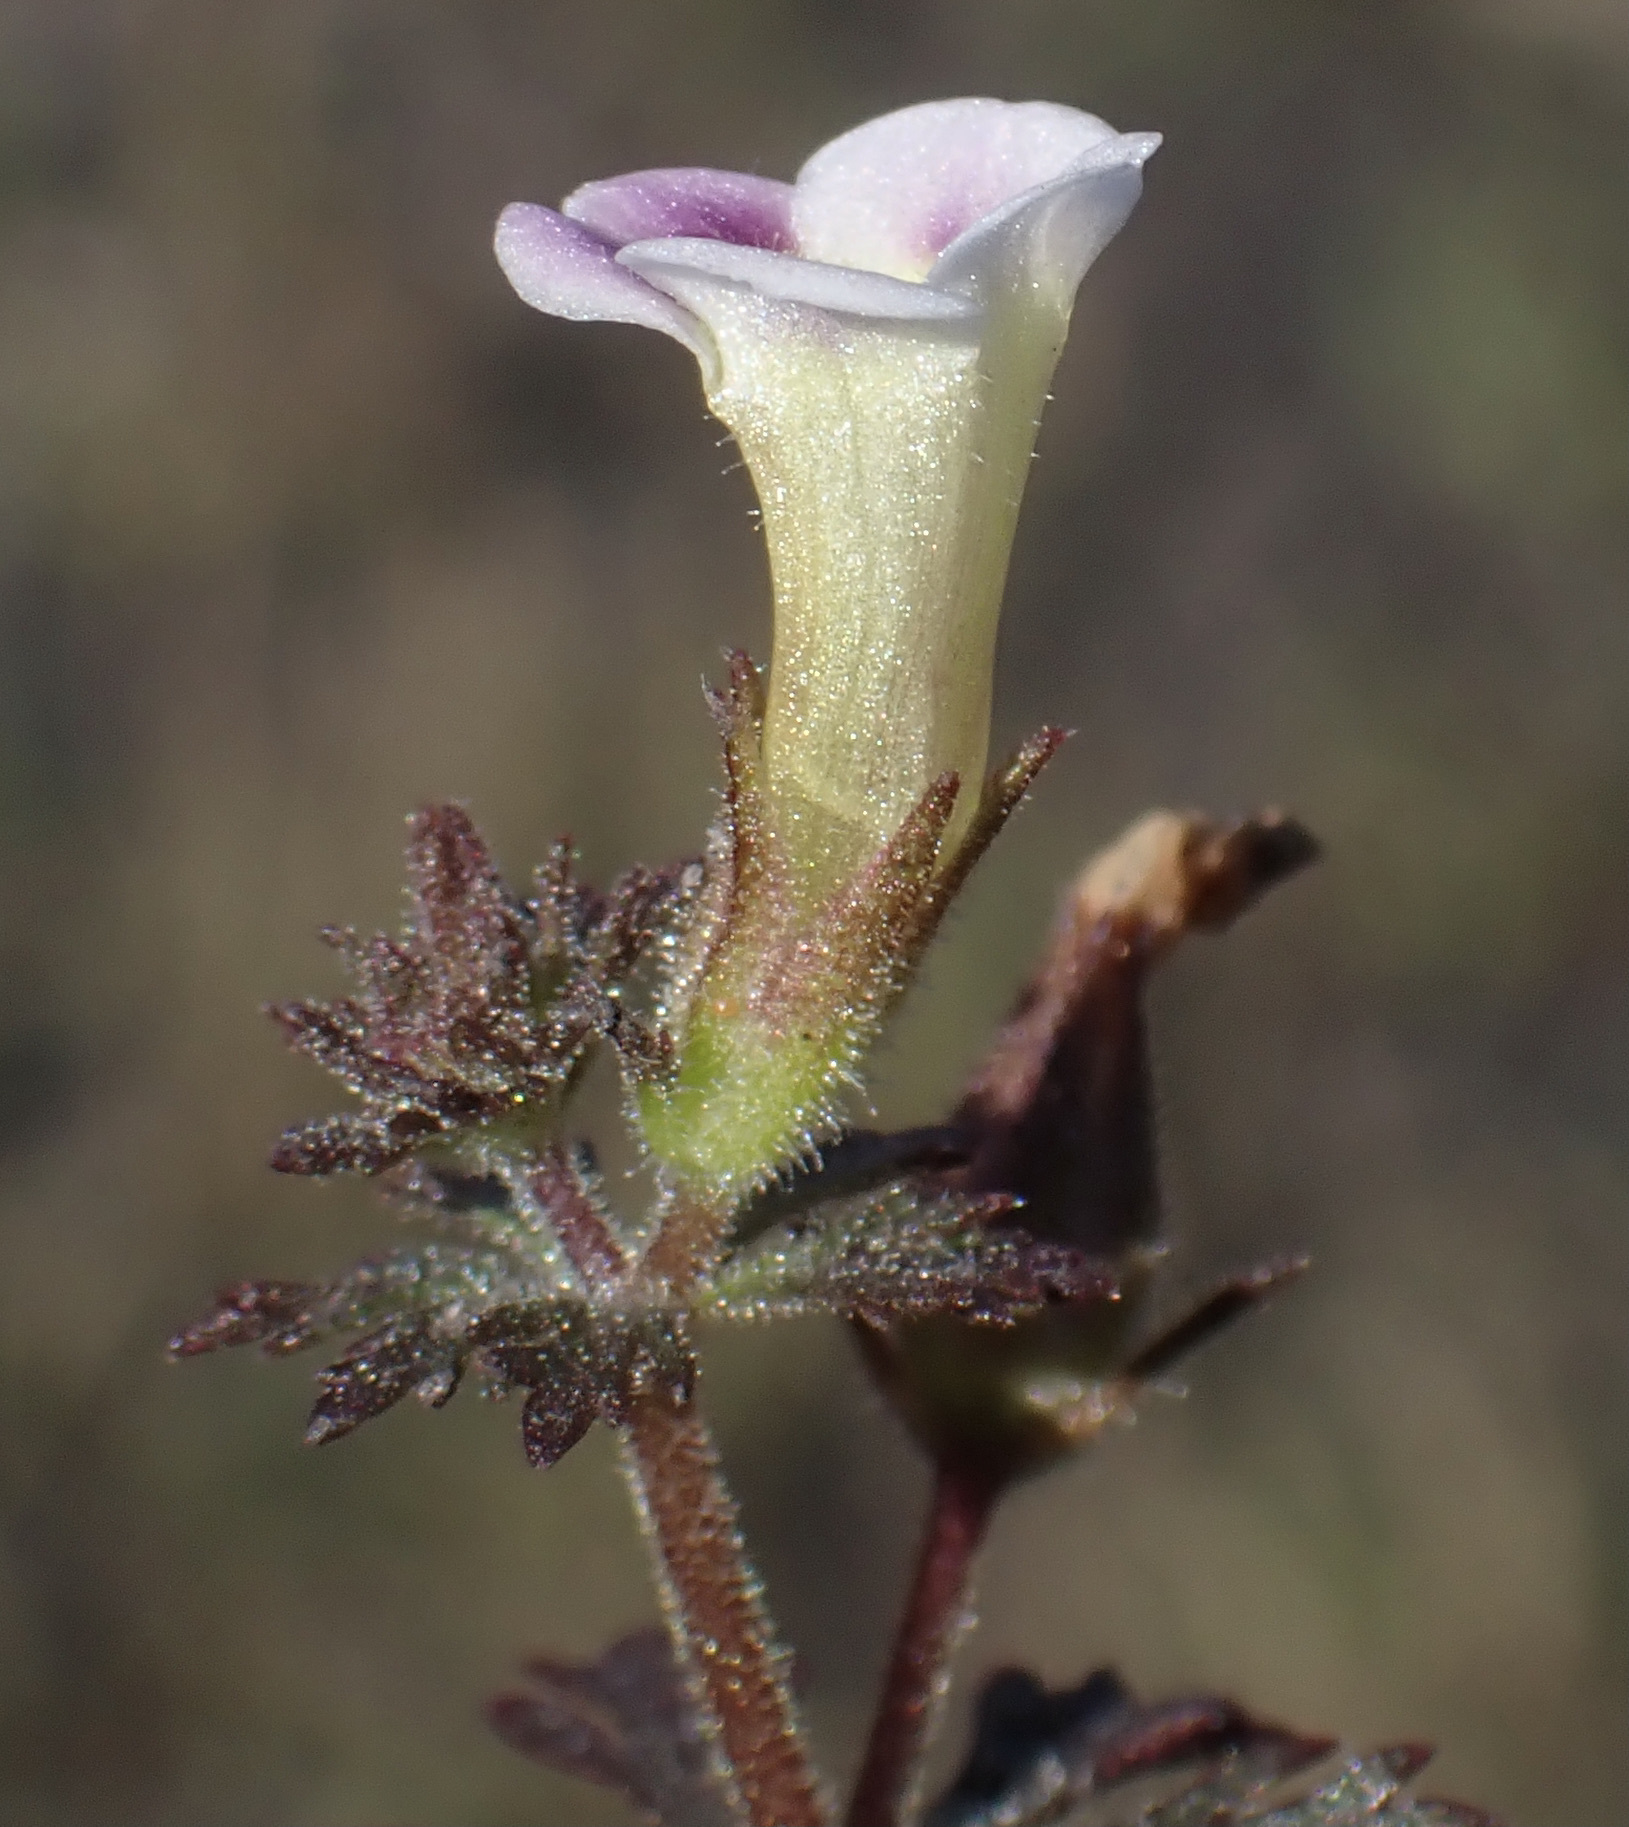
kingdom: Plantae
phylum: Tracheophyta
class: Magnoliopsida
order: Lamiales
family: Plantaginaceae
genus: Limnophila
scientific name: Limnophila ceratophylloides
